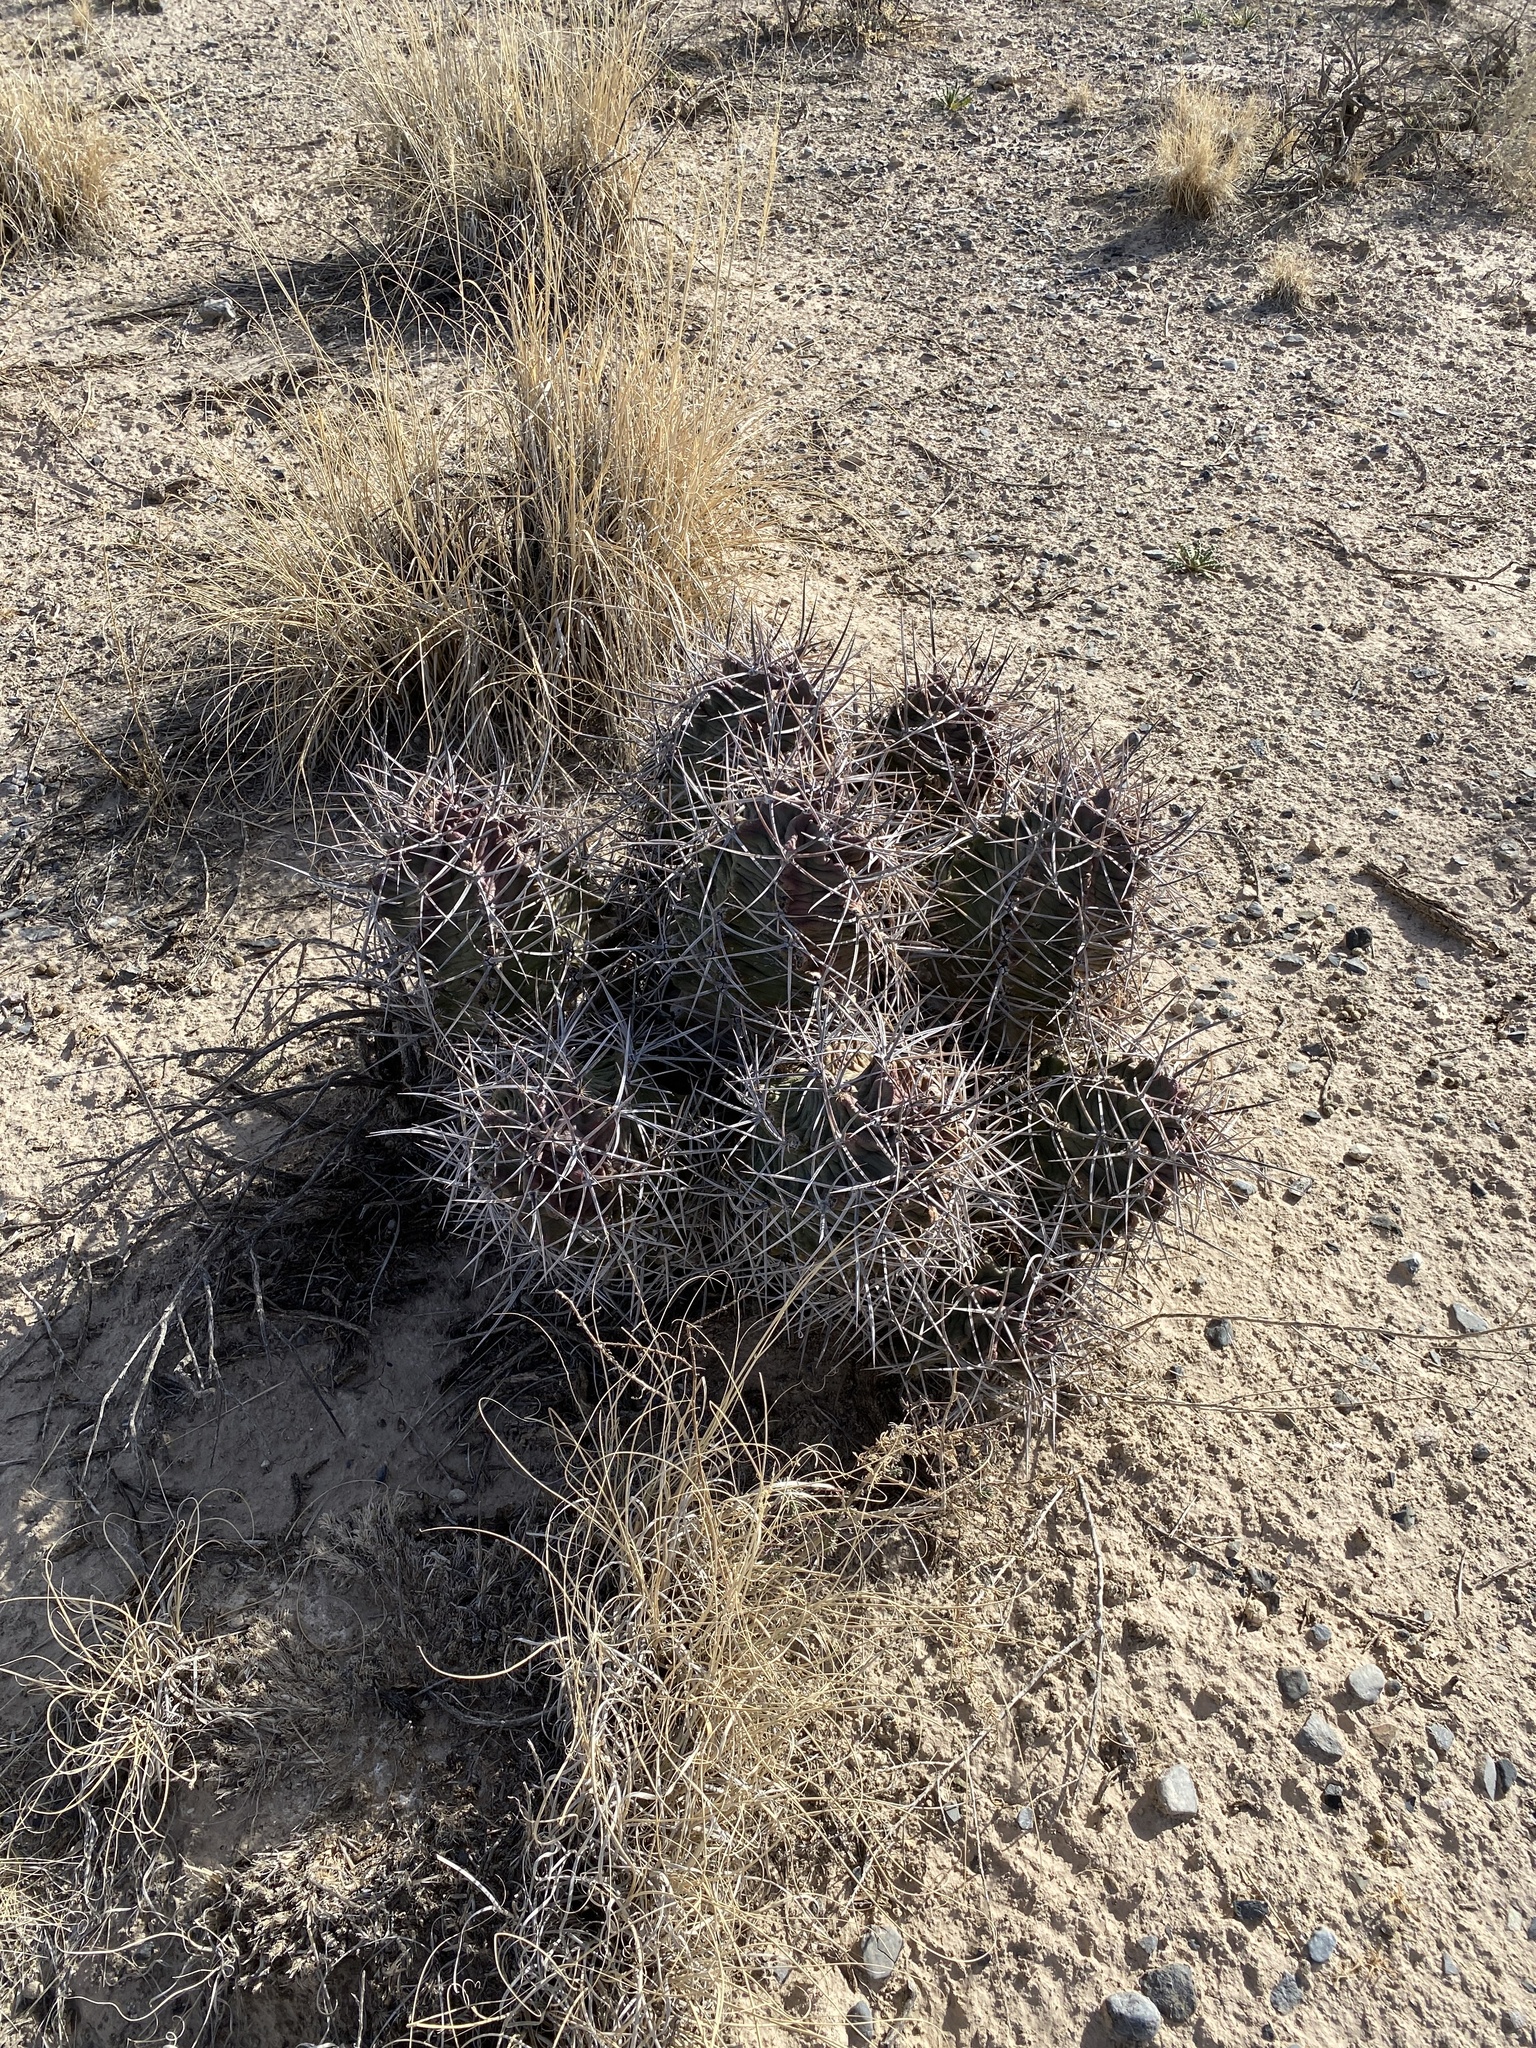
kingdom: Plantae
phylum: Tracheophyta
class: Magnoliopsida
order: Caryophyllales
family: Cactaceae
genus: Echinocereus
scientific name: Echinocereus triglochidiatus
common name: Claretcup hedgehog
